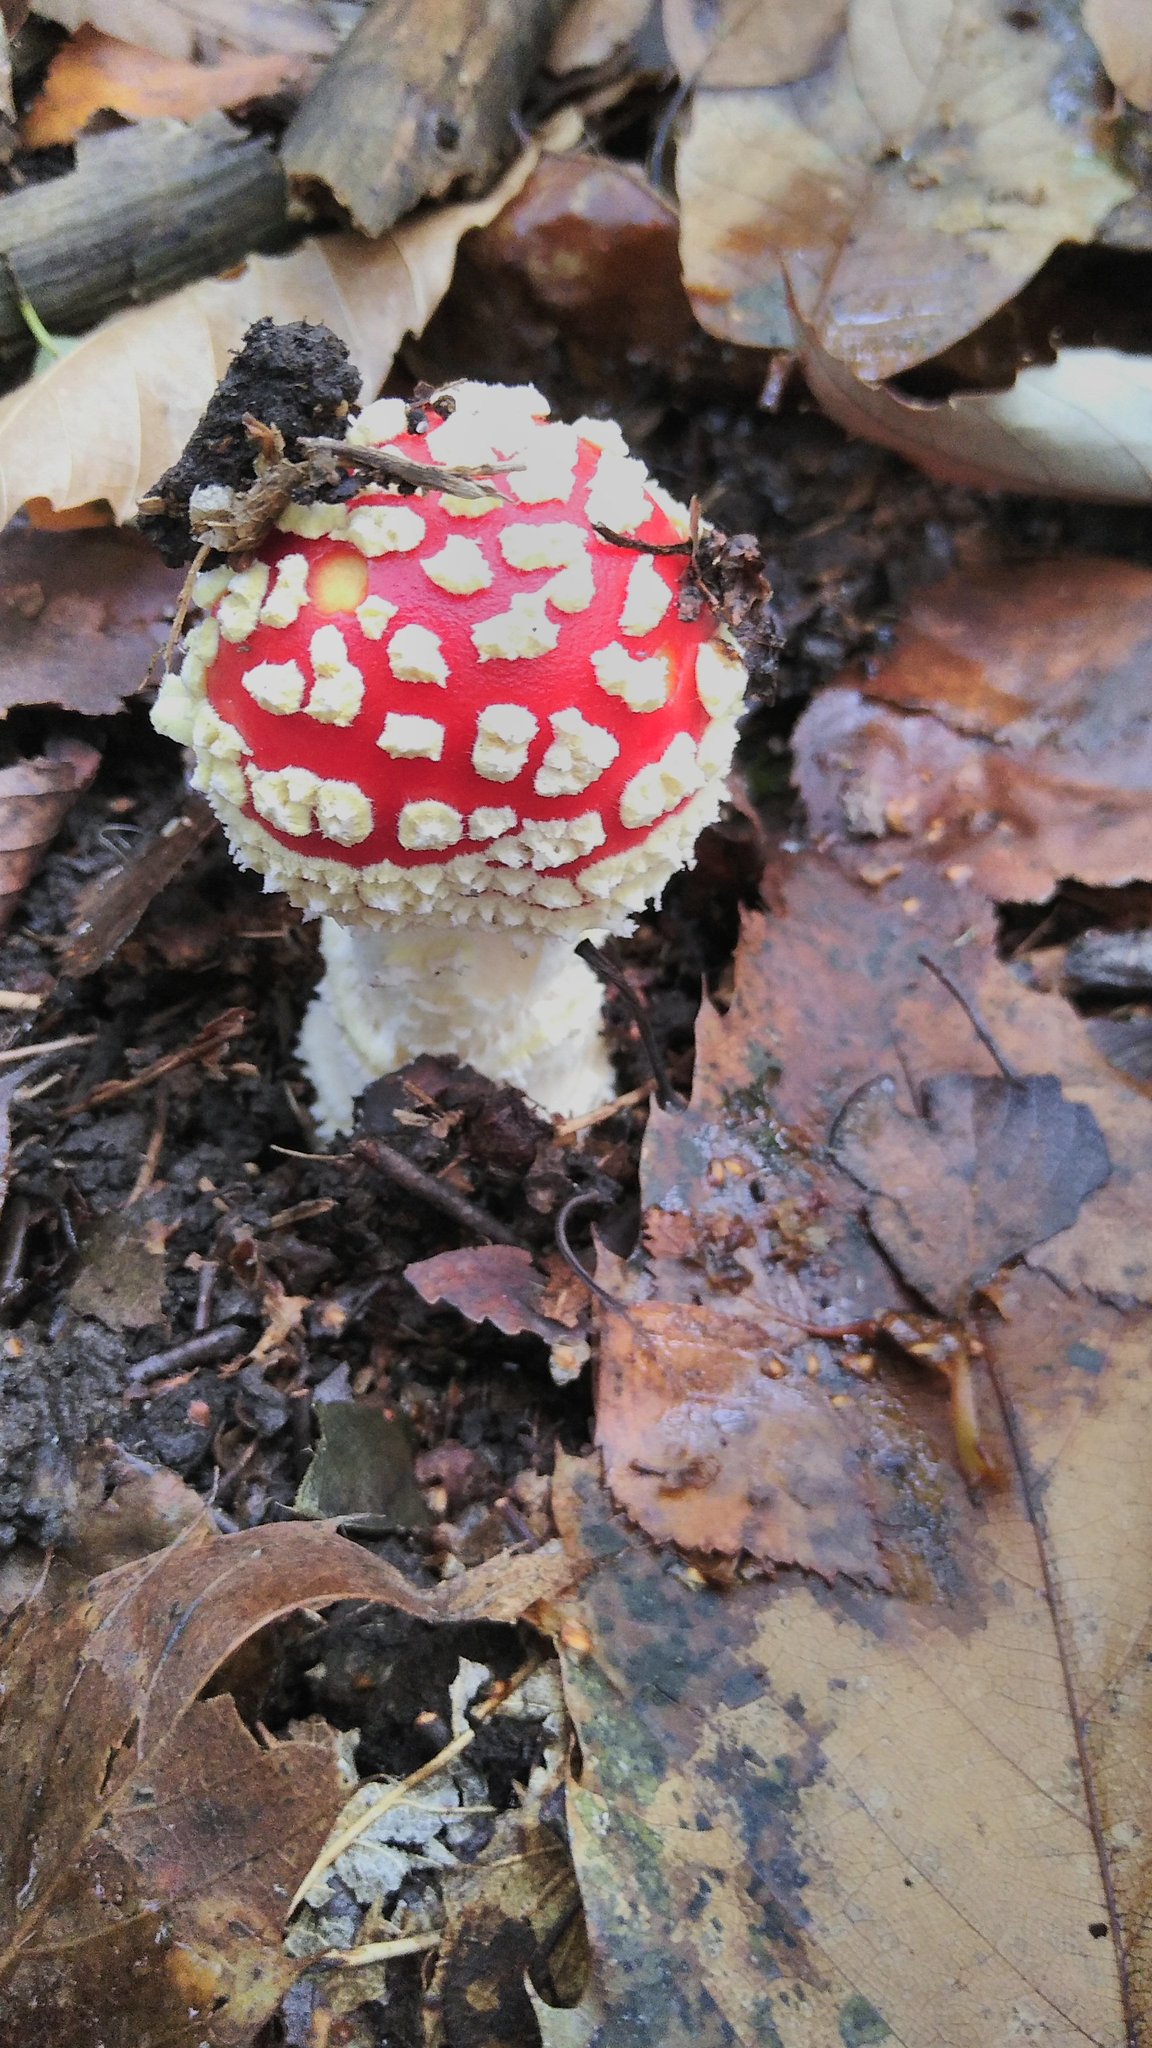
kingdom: Fungi
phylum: Basidiomycota
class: Agaricomycetes
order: Agaricales
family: Amanitaceae
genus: Amanita
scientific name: Amanita muscaria
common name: Fly agaric
